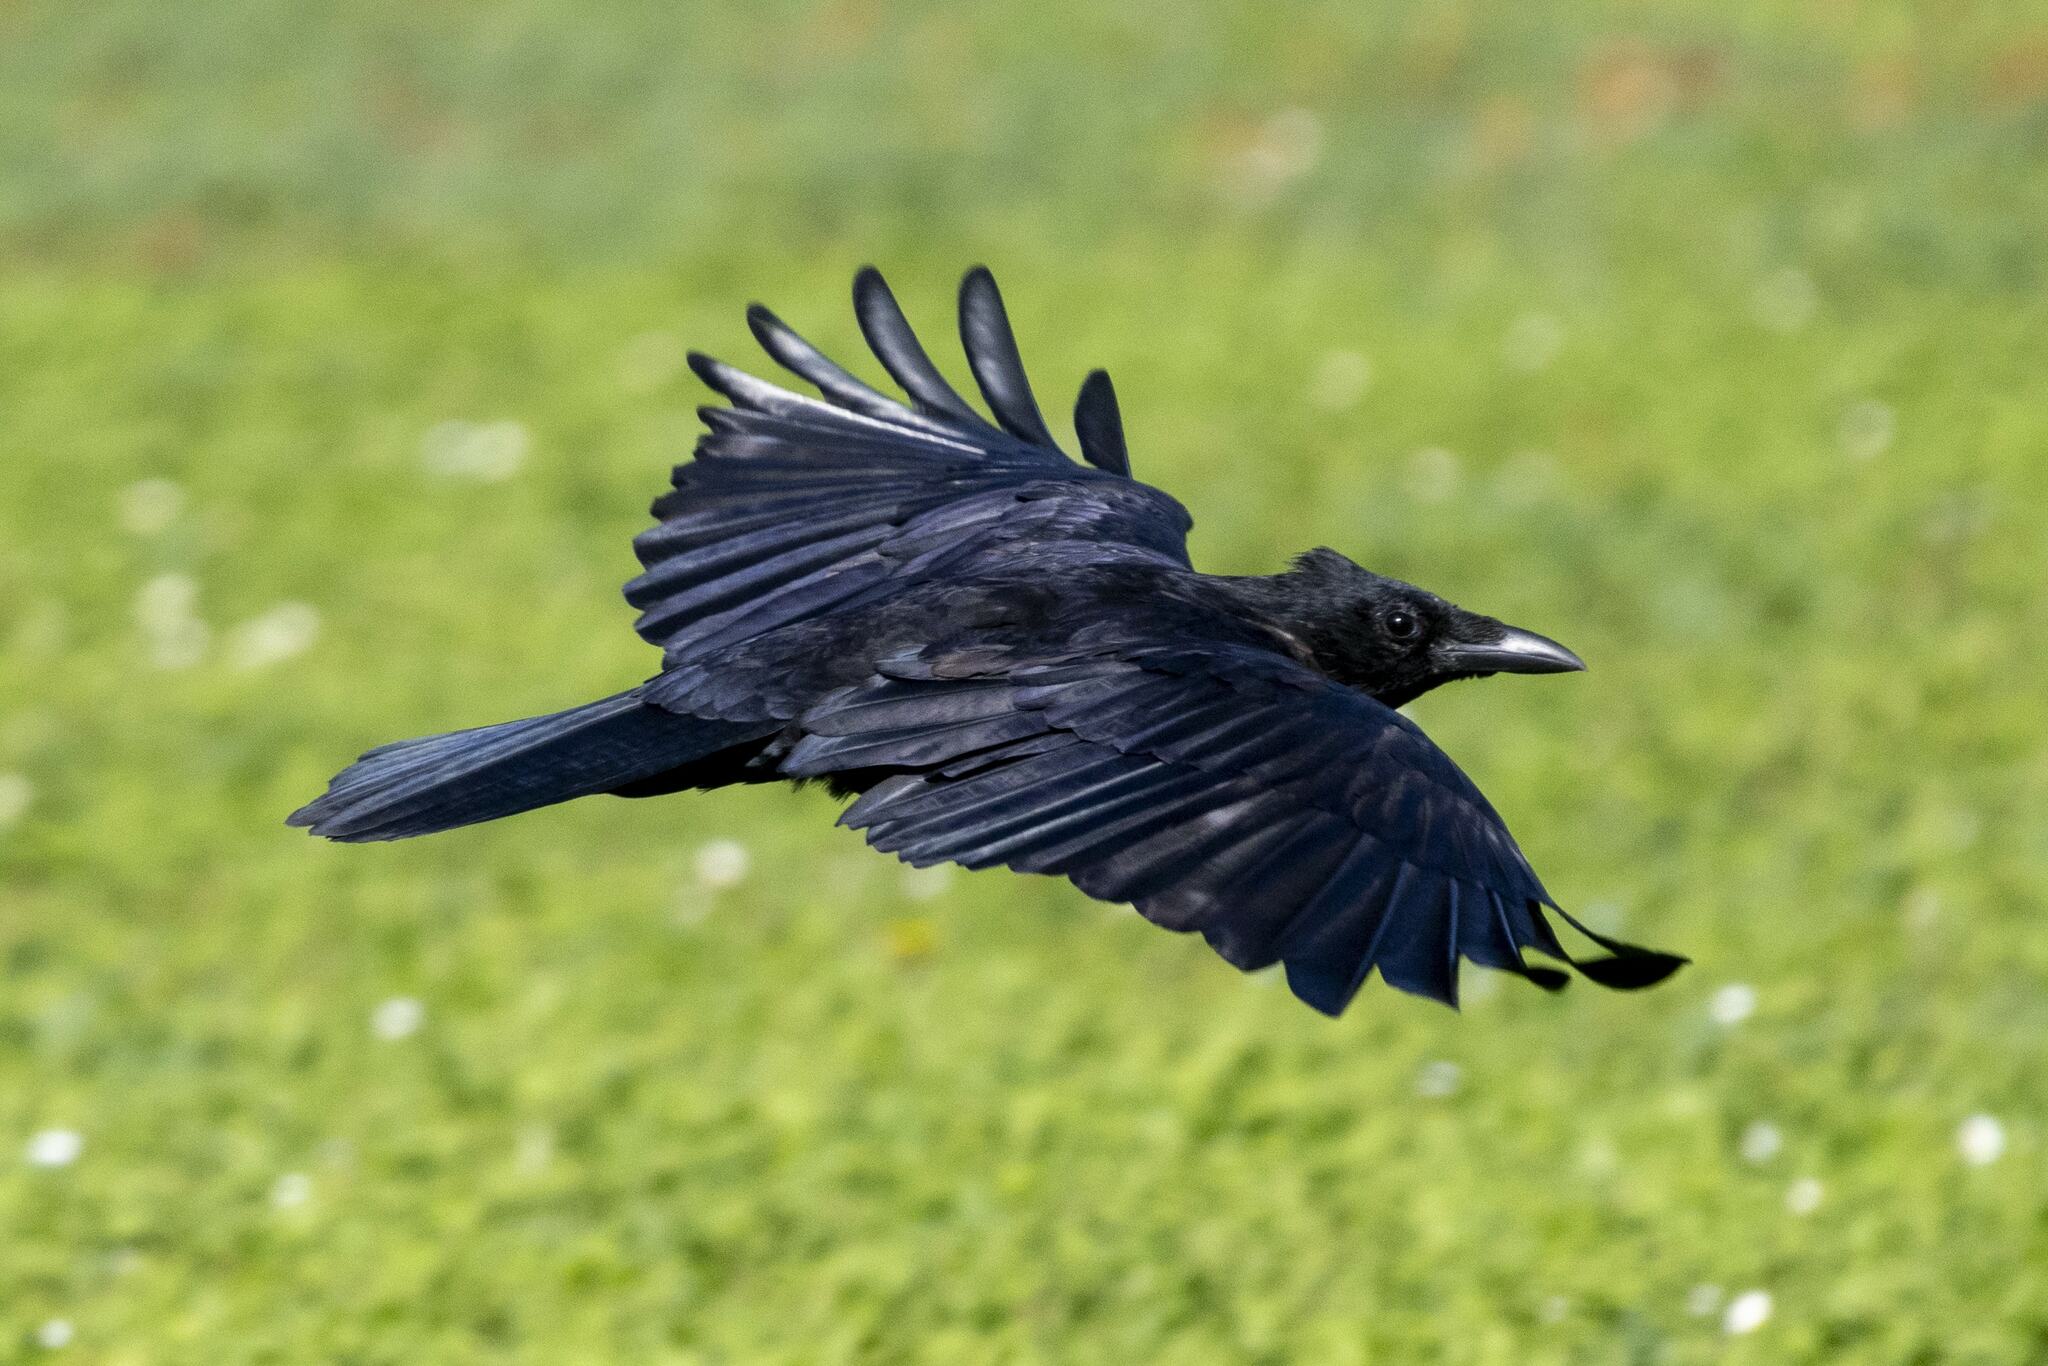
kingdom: Animalia
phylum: Chordata
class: Aves
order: Passeriformes
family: Corvidae
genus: Corvus
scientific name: Corvus corone
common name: Carrion crow
